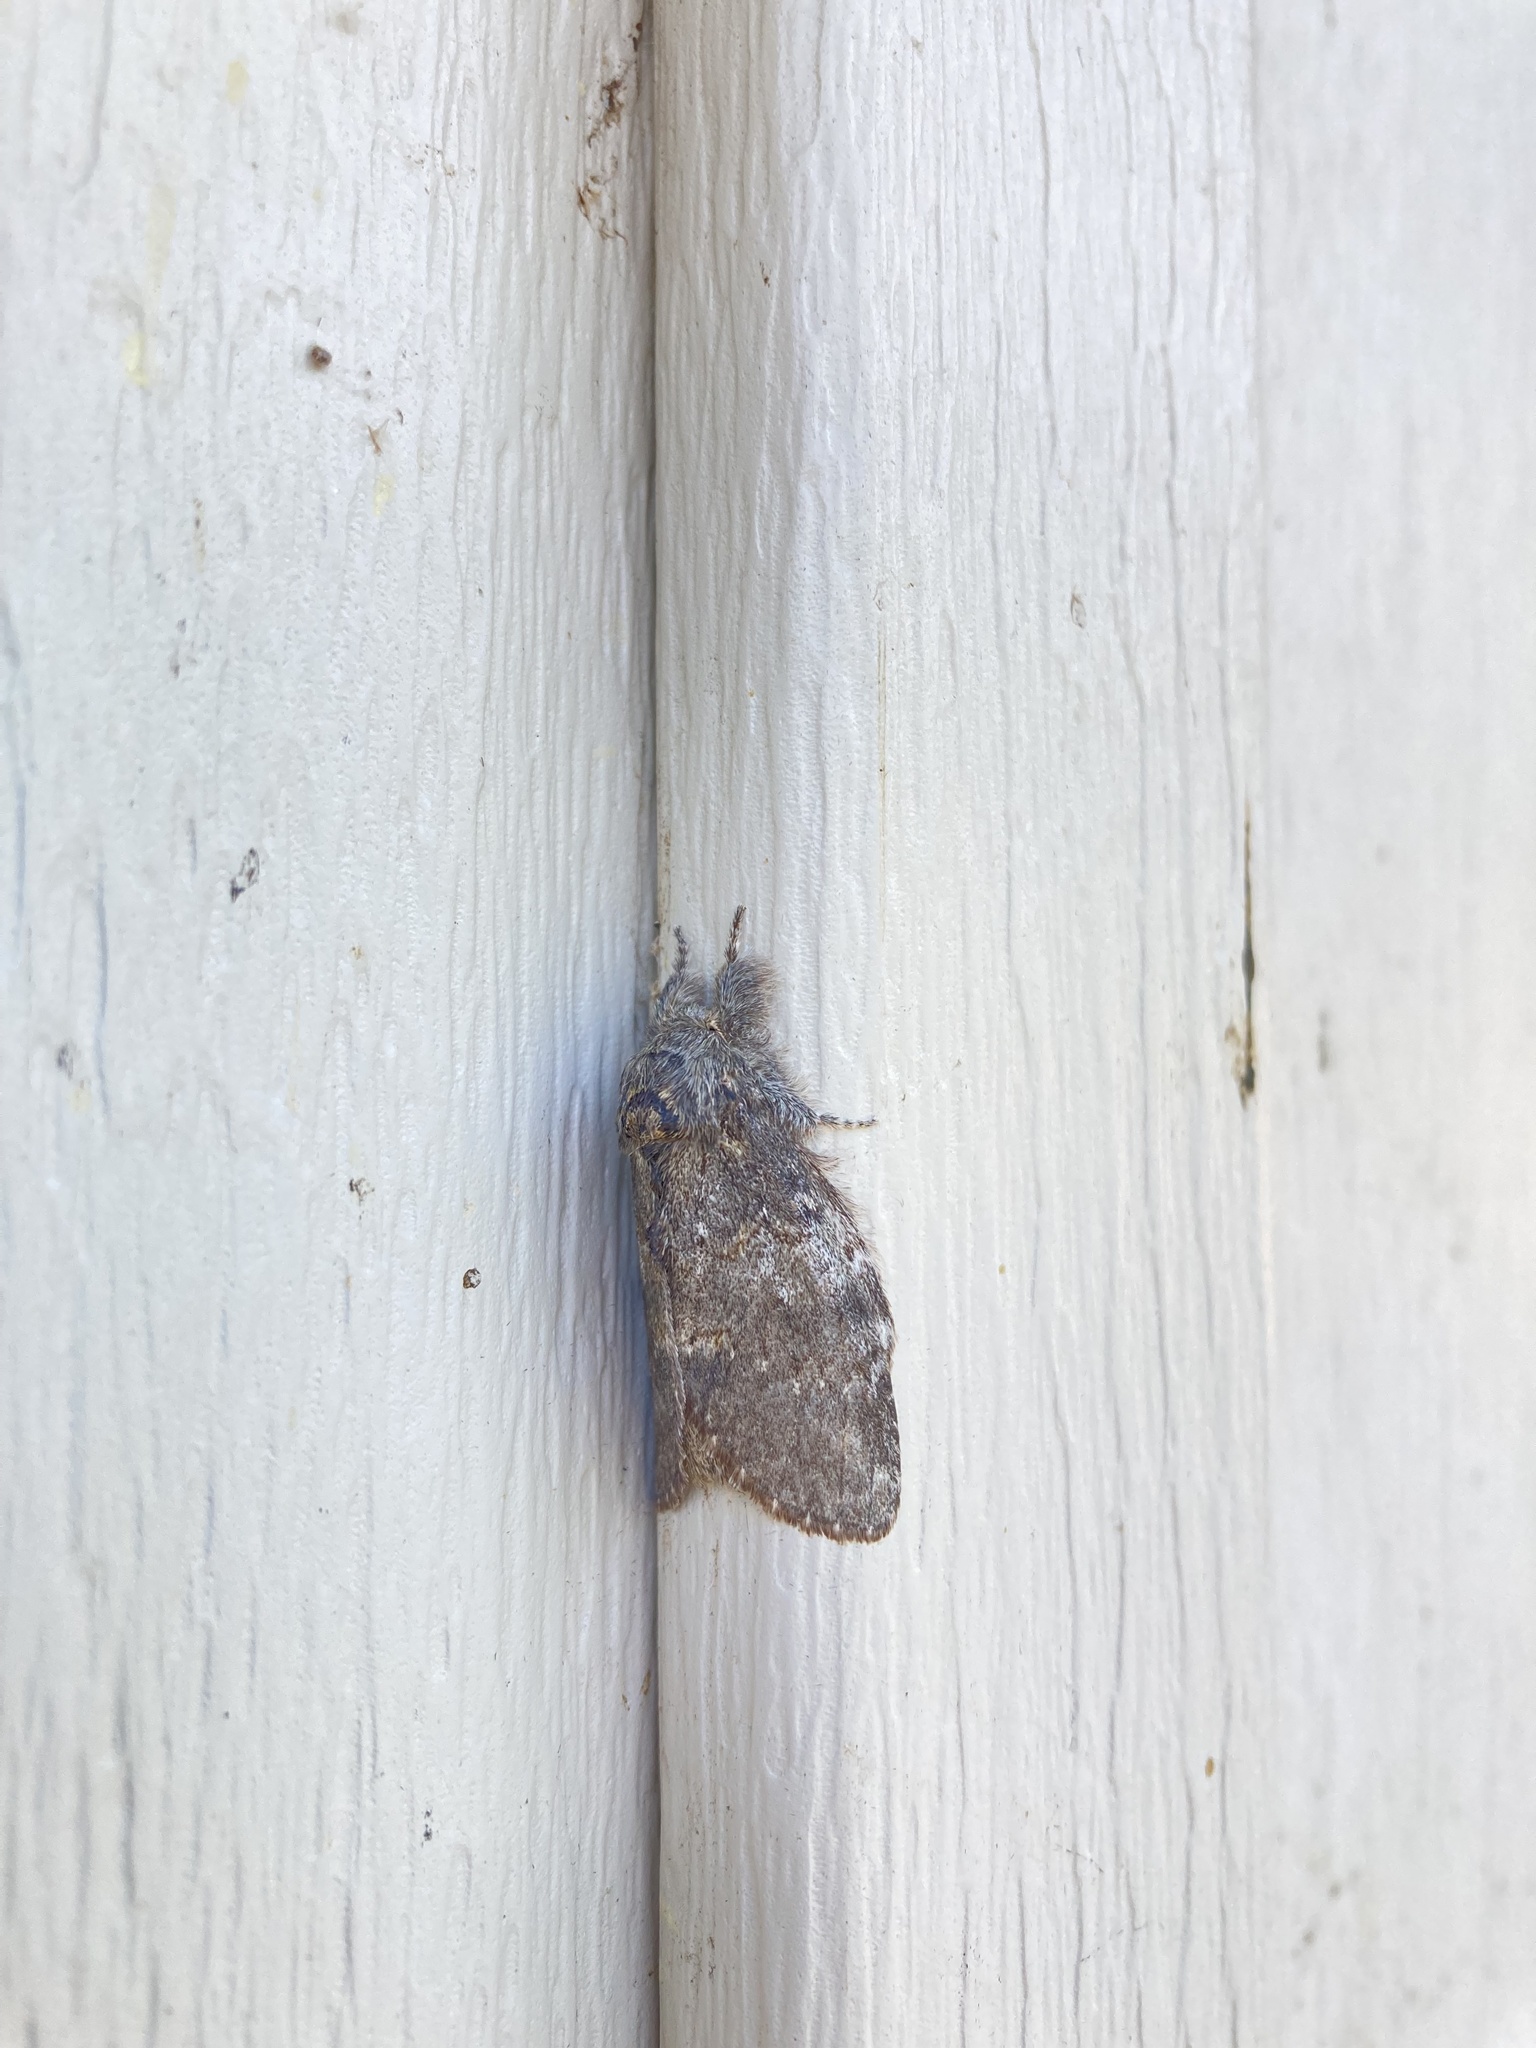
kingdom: Animalia
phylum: Arthropoda
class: Insecta
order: Lepidoptera
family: Notodontidae
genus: Peridea
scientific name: Peridea angulosa
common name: Angulose prominent
